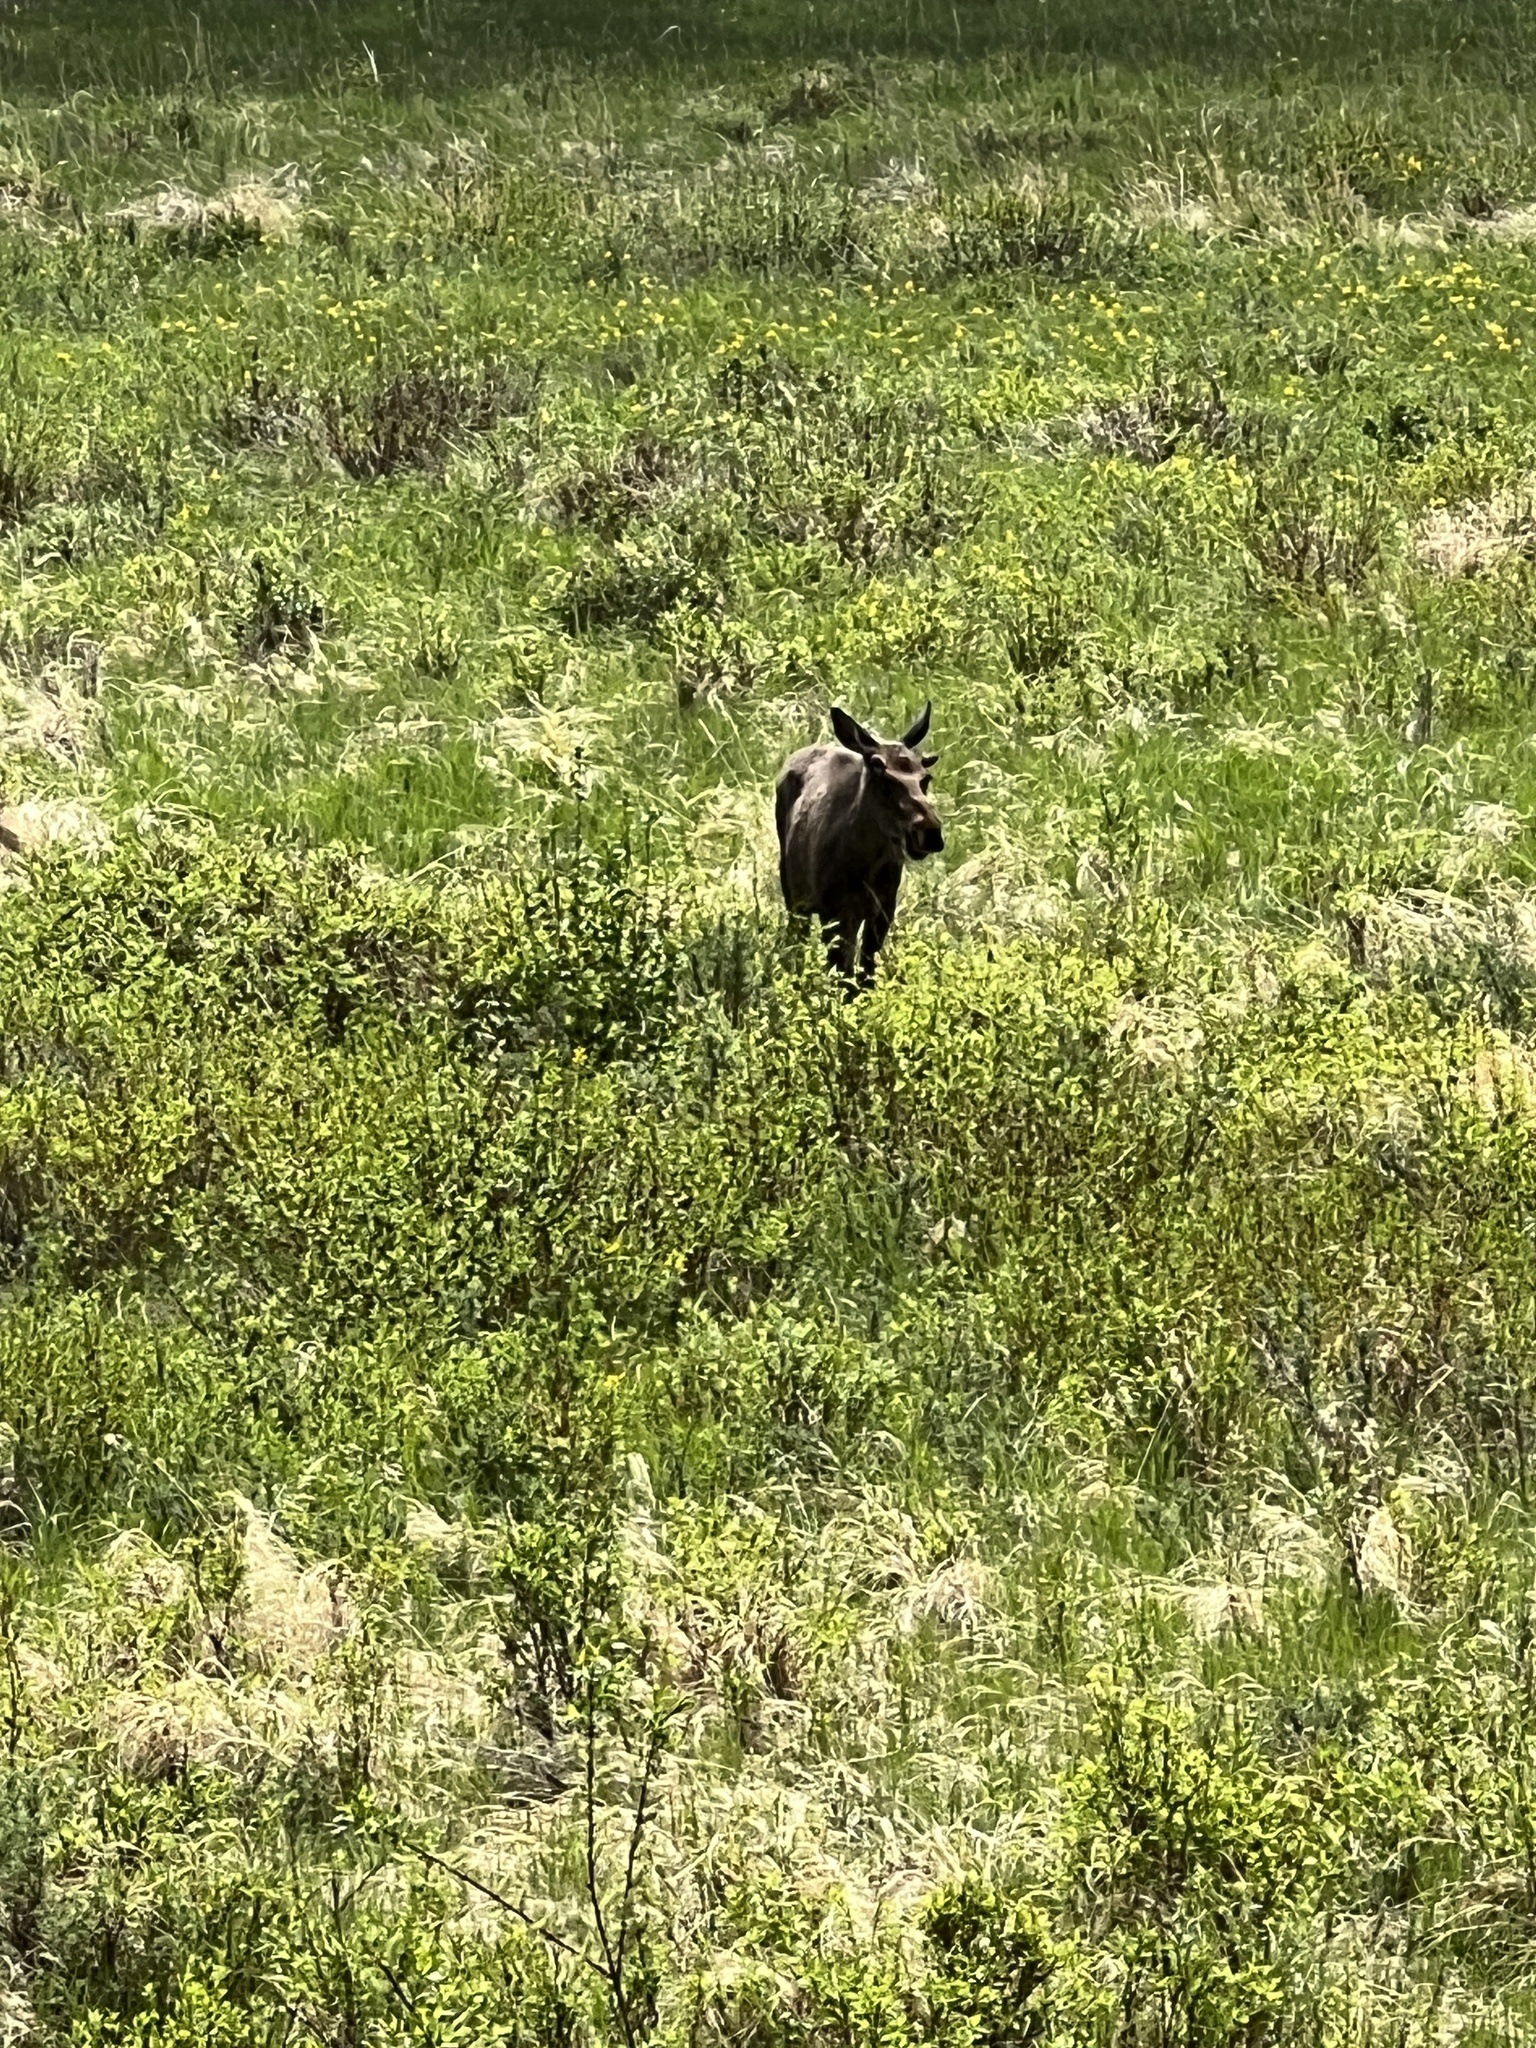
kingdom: Animalia
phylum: Chordata
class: Mammalia
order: Artiodactyla
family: Cervidae
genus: Alces
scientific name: Alces alces
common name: Moose
